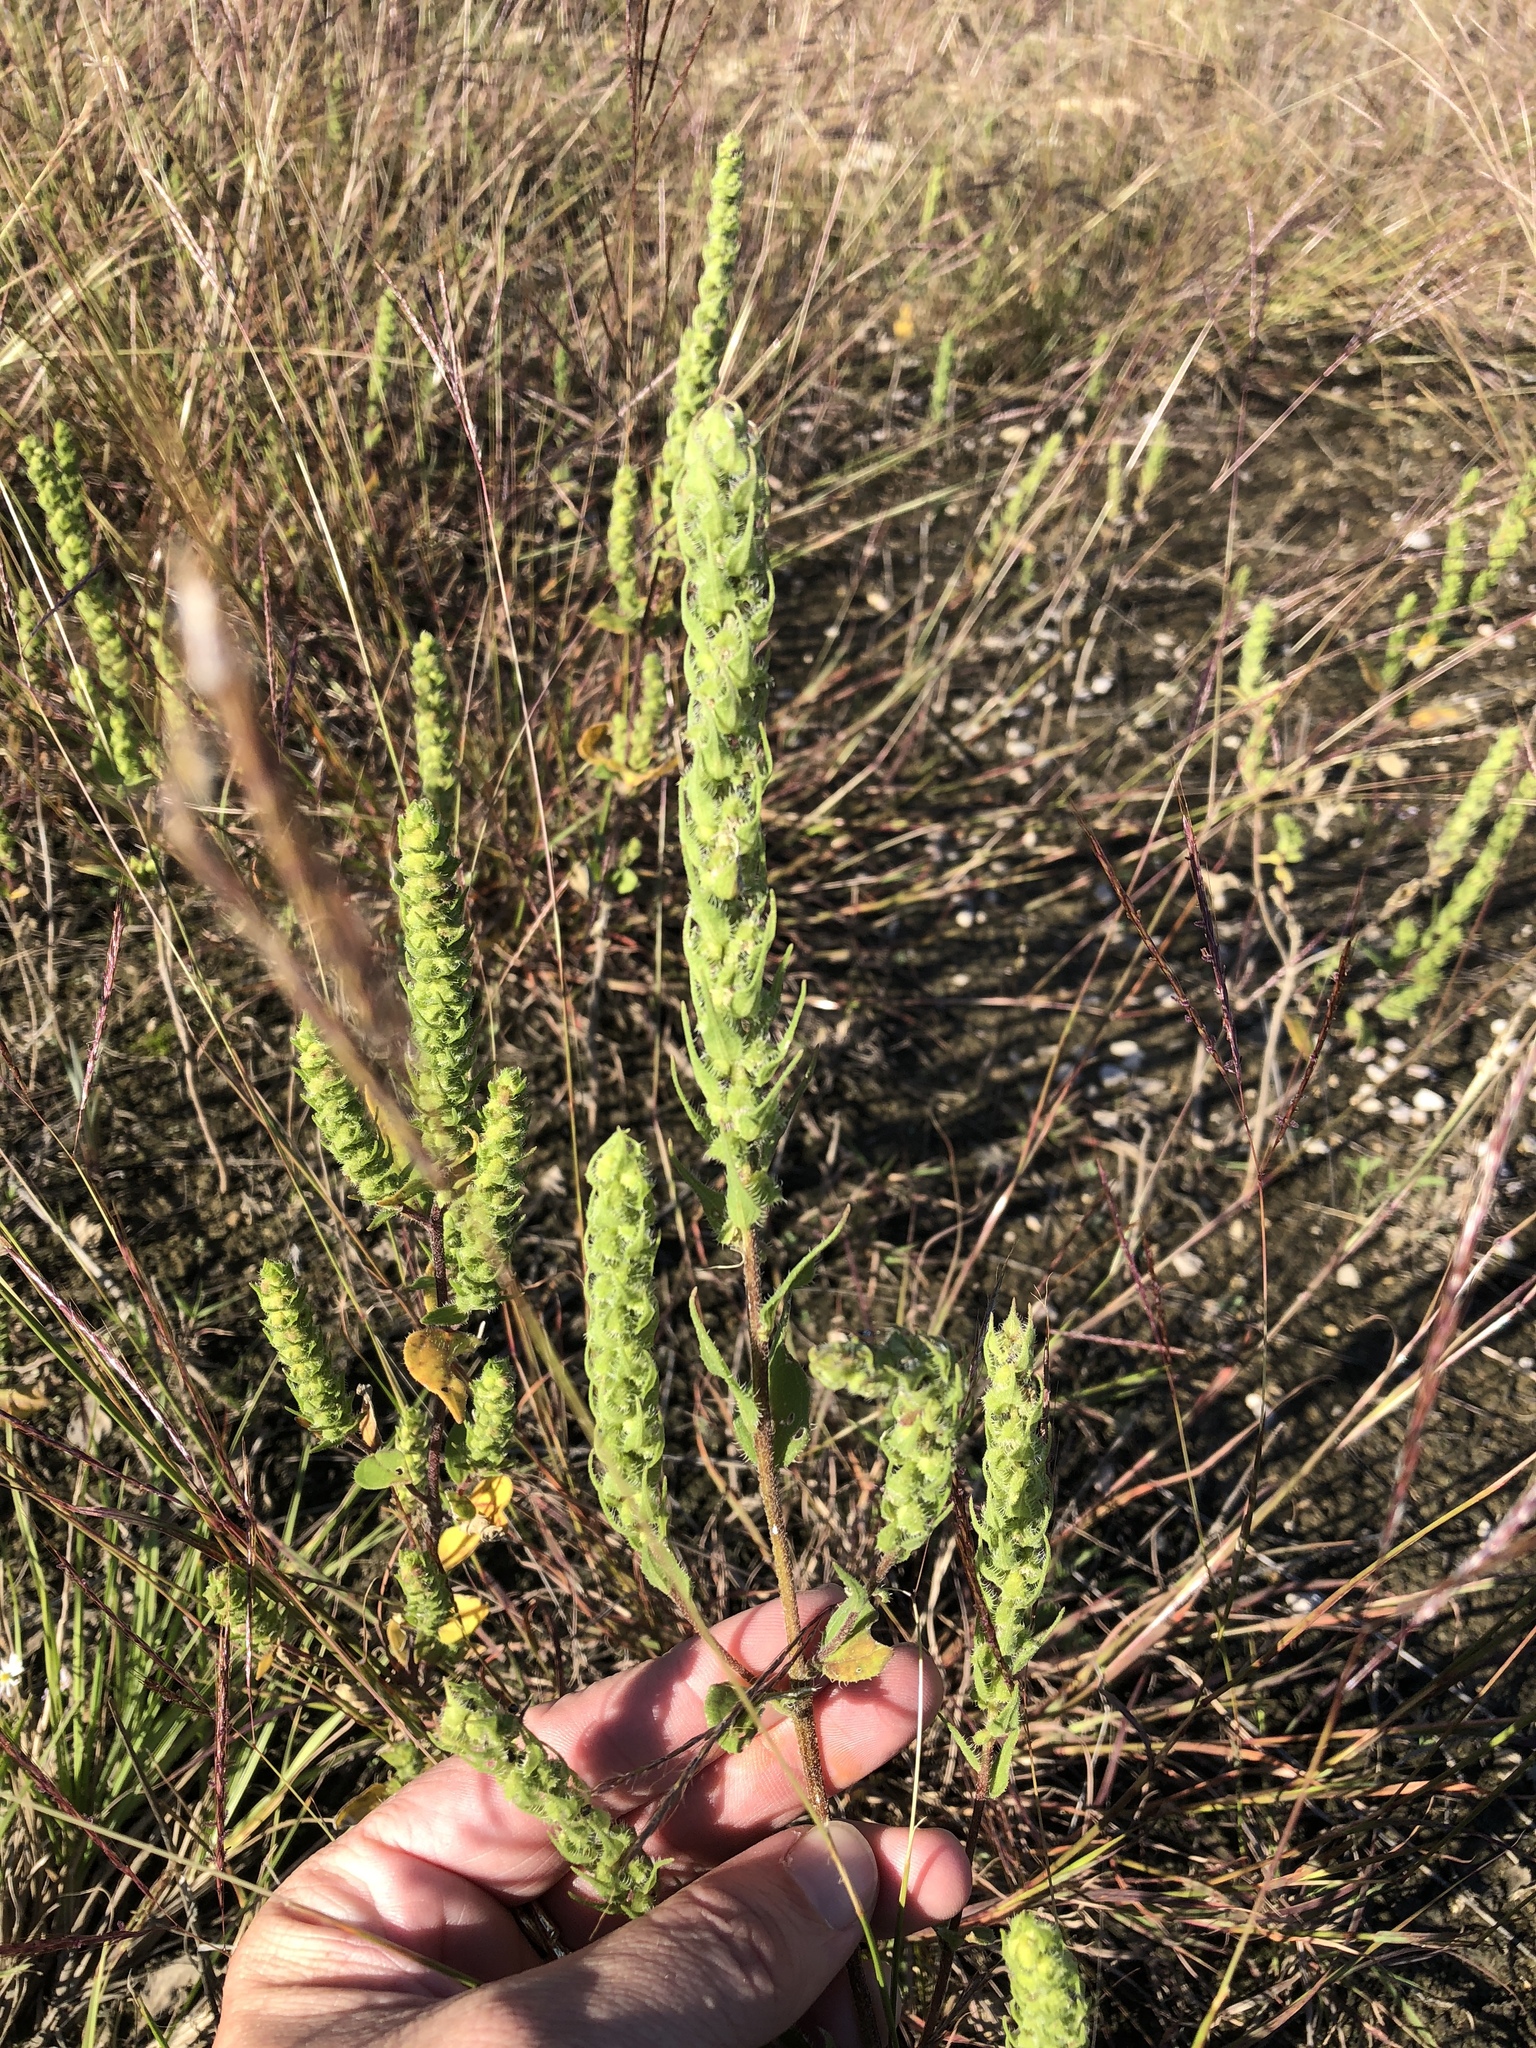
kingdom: Plantae
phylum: Tracheophyta
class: Magnoliopsida
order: Asterales
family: Asteraceae
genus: Iva
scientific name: Iva annua
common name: Marsh-elder
